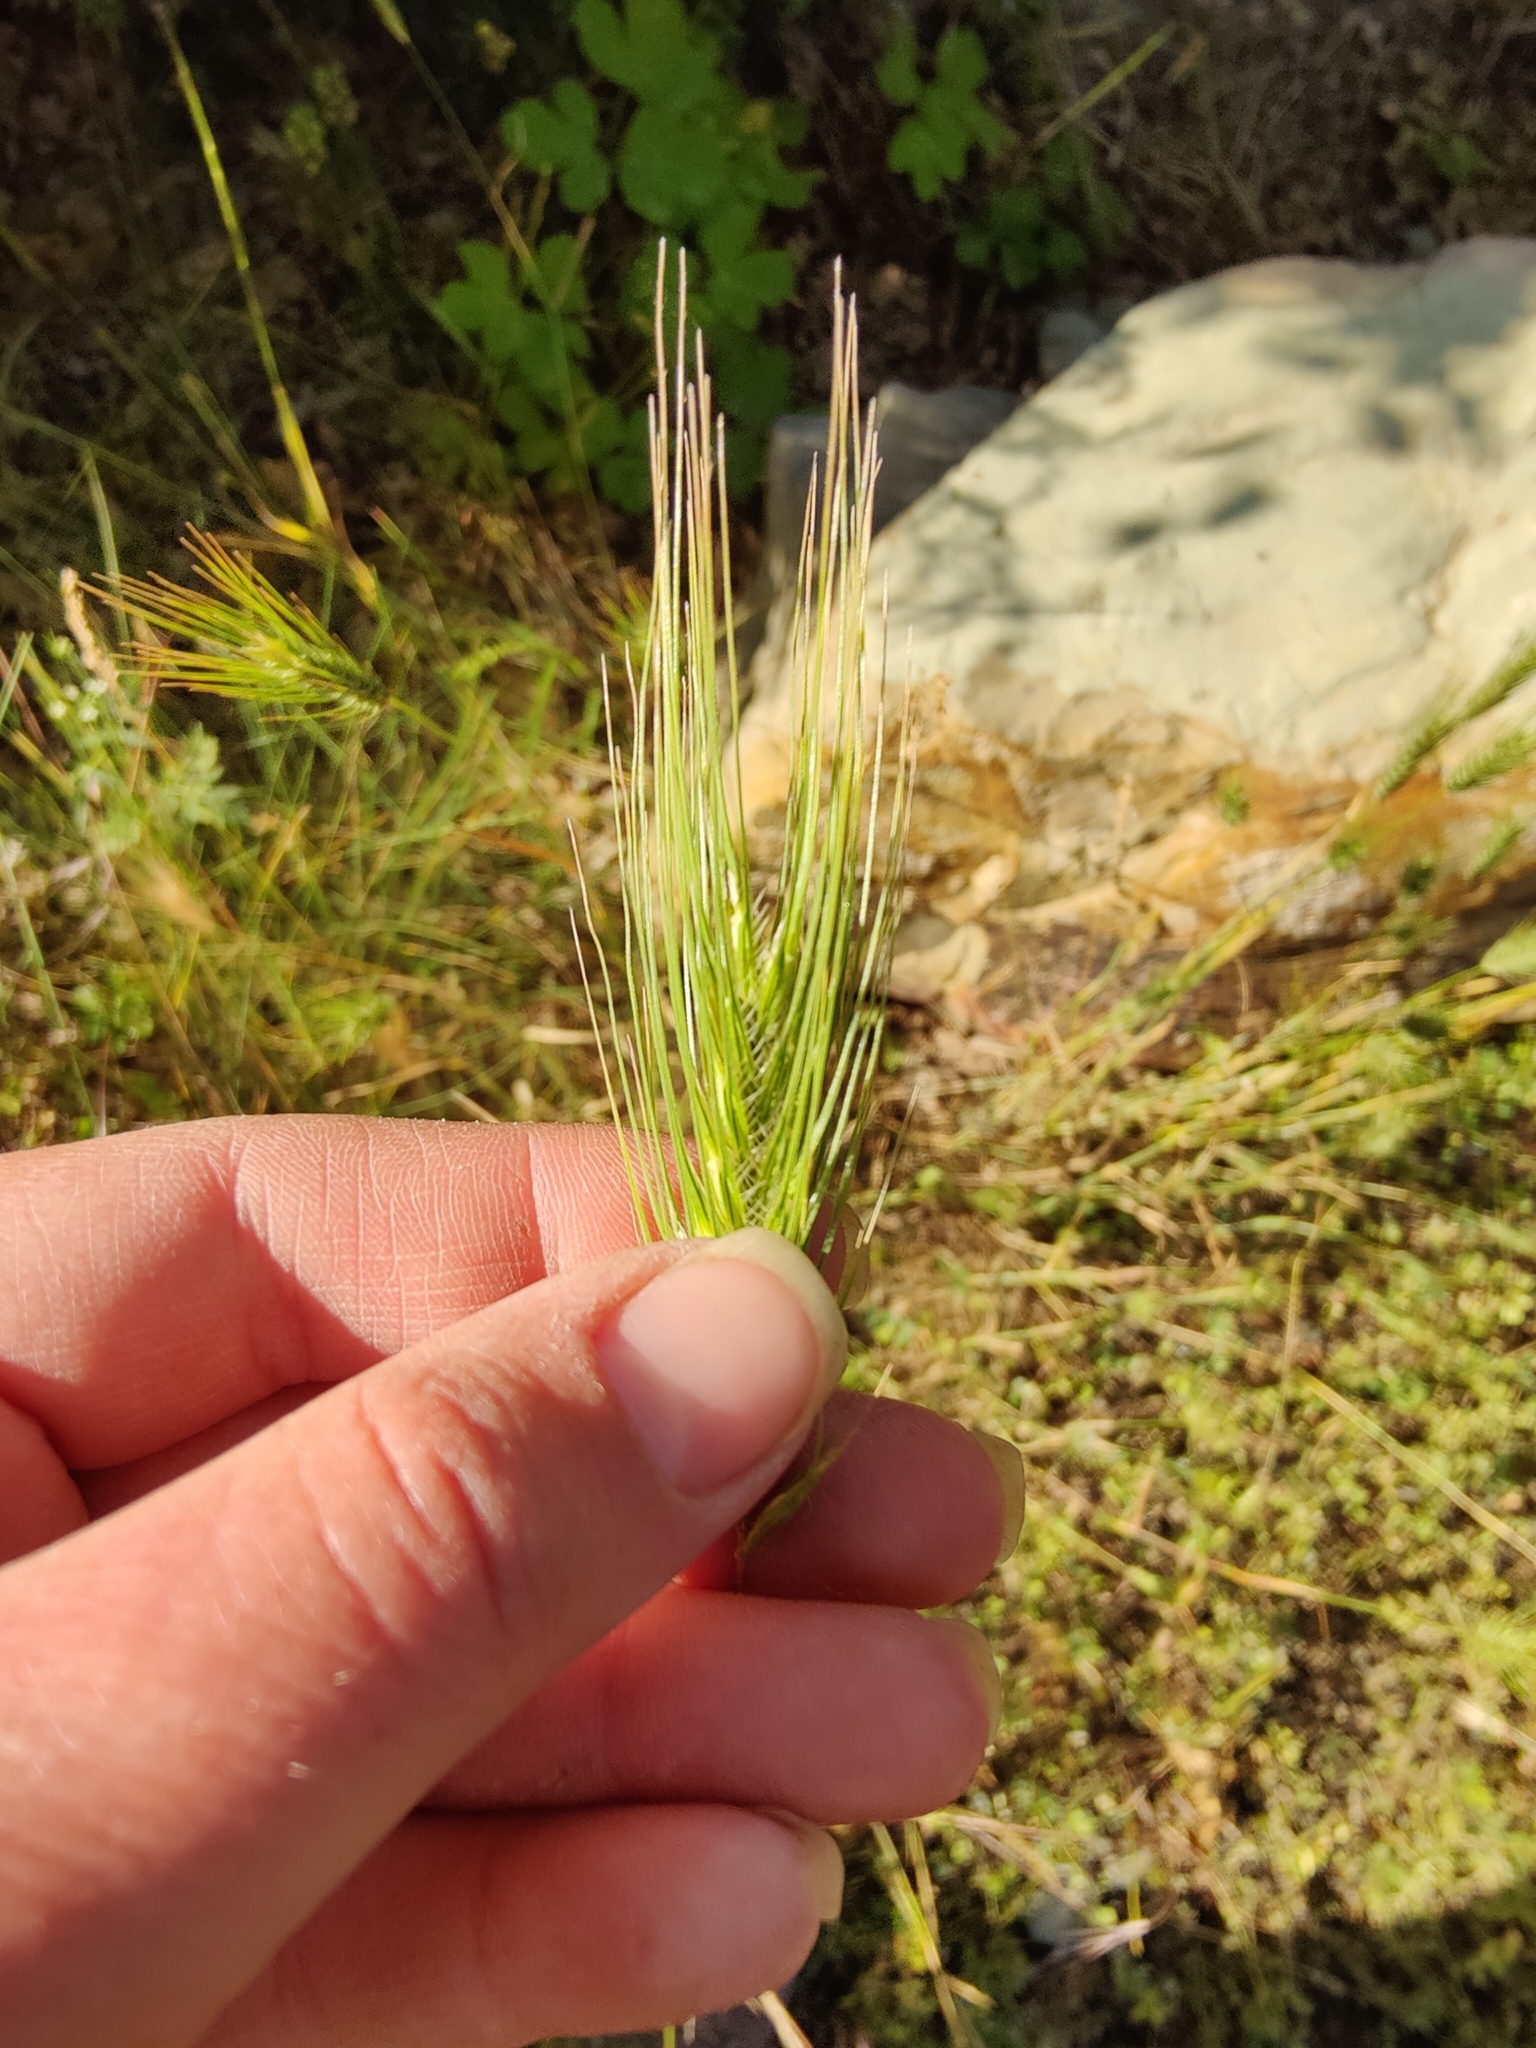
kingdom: Plantae
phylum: Tracheophyta
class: Liliopsida
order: Poales
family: Poaceae
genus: Dasypyrum
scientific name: Dasypyrum villosum
